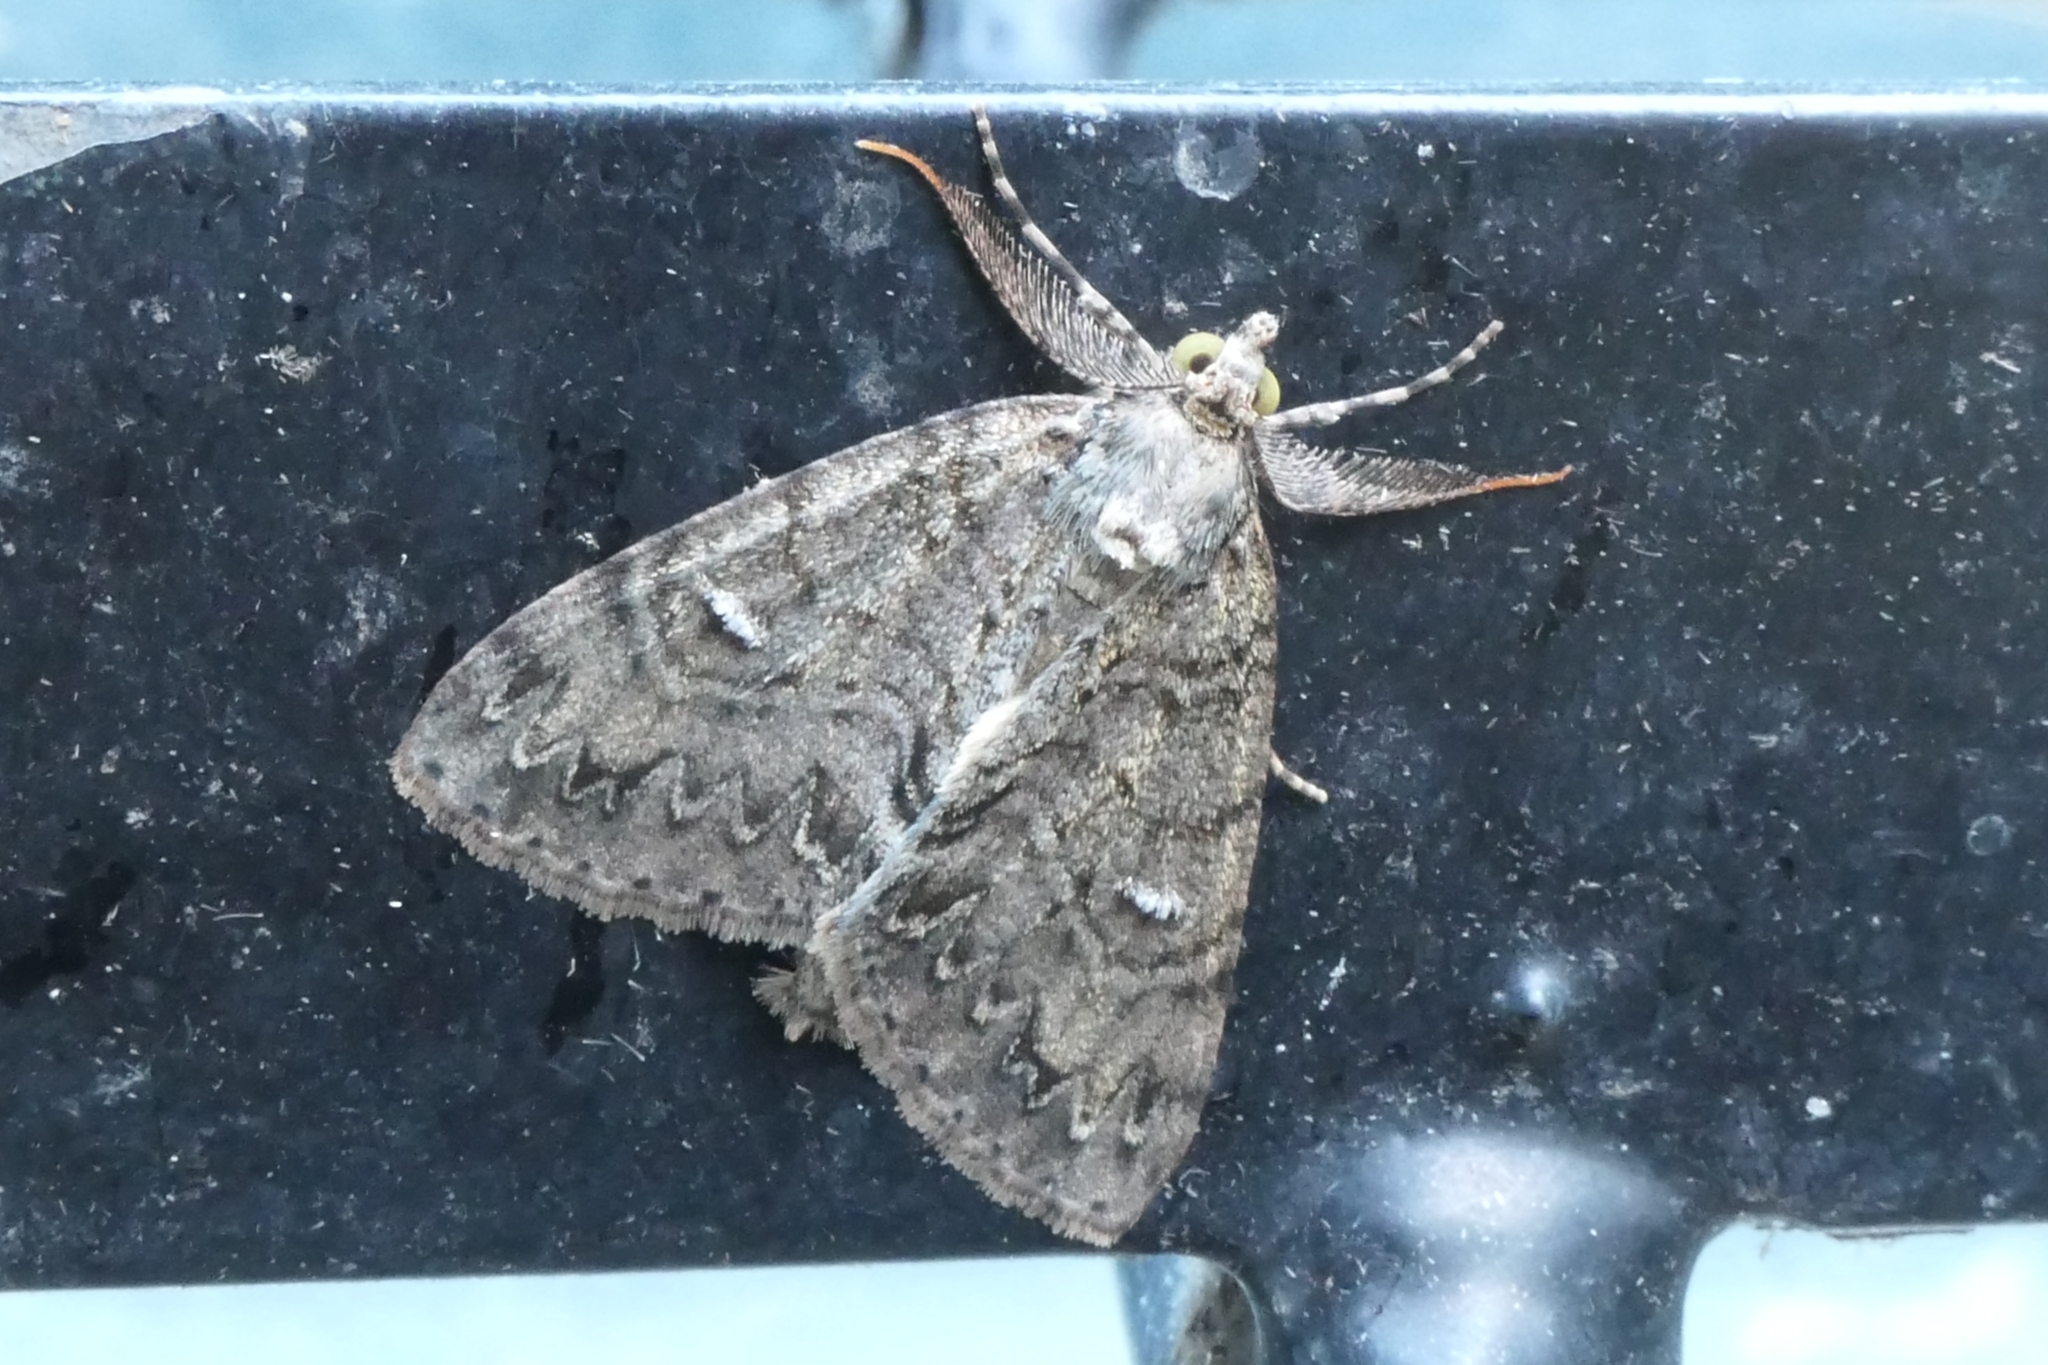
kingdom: Animalia
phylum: Arthropoda
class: Insecta
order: Lepidoptera
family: Geometridae
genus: Pseudocoremia
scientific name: Pseudocoremia suavis
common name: Common forest looper
